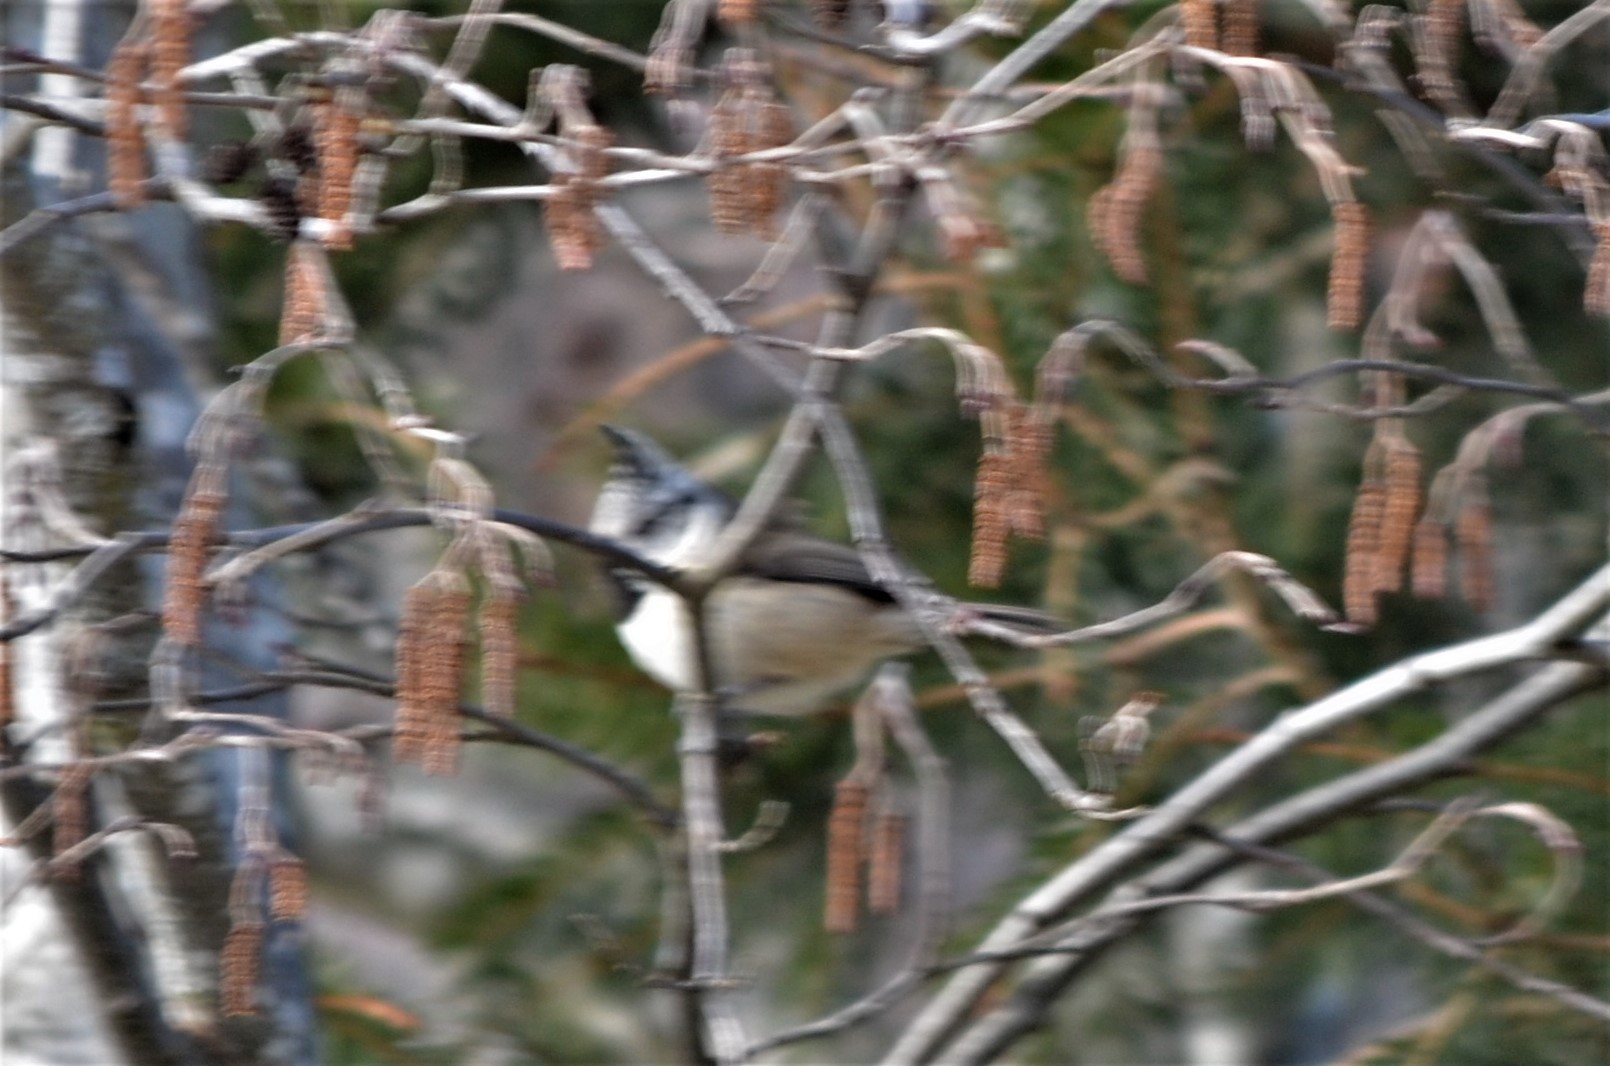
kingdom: Animalia
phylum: Chordata
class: Aves
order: Passeriformes
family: Paridae
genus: Lophophanes
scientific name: Lophophanes cristatus
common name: European crested tit
